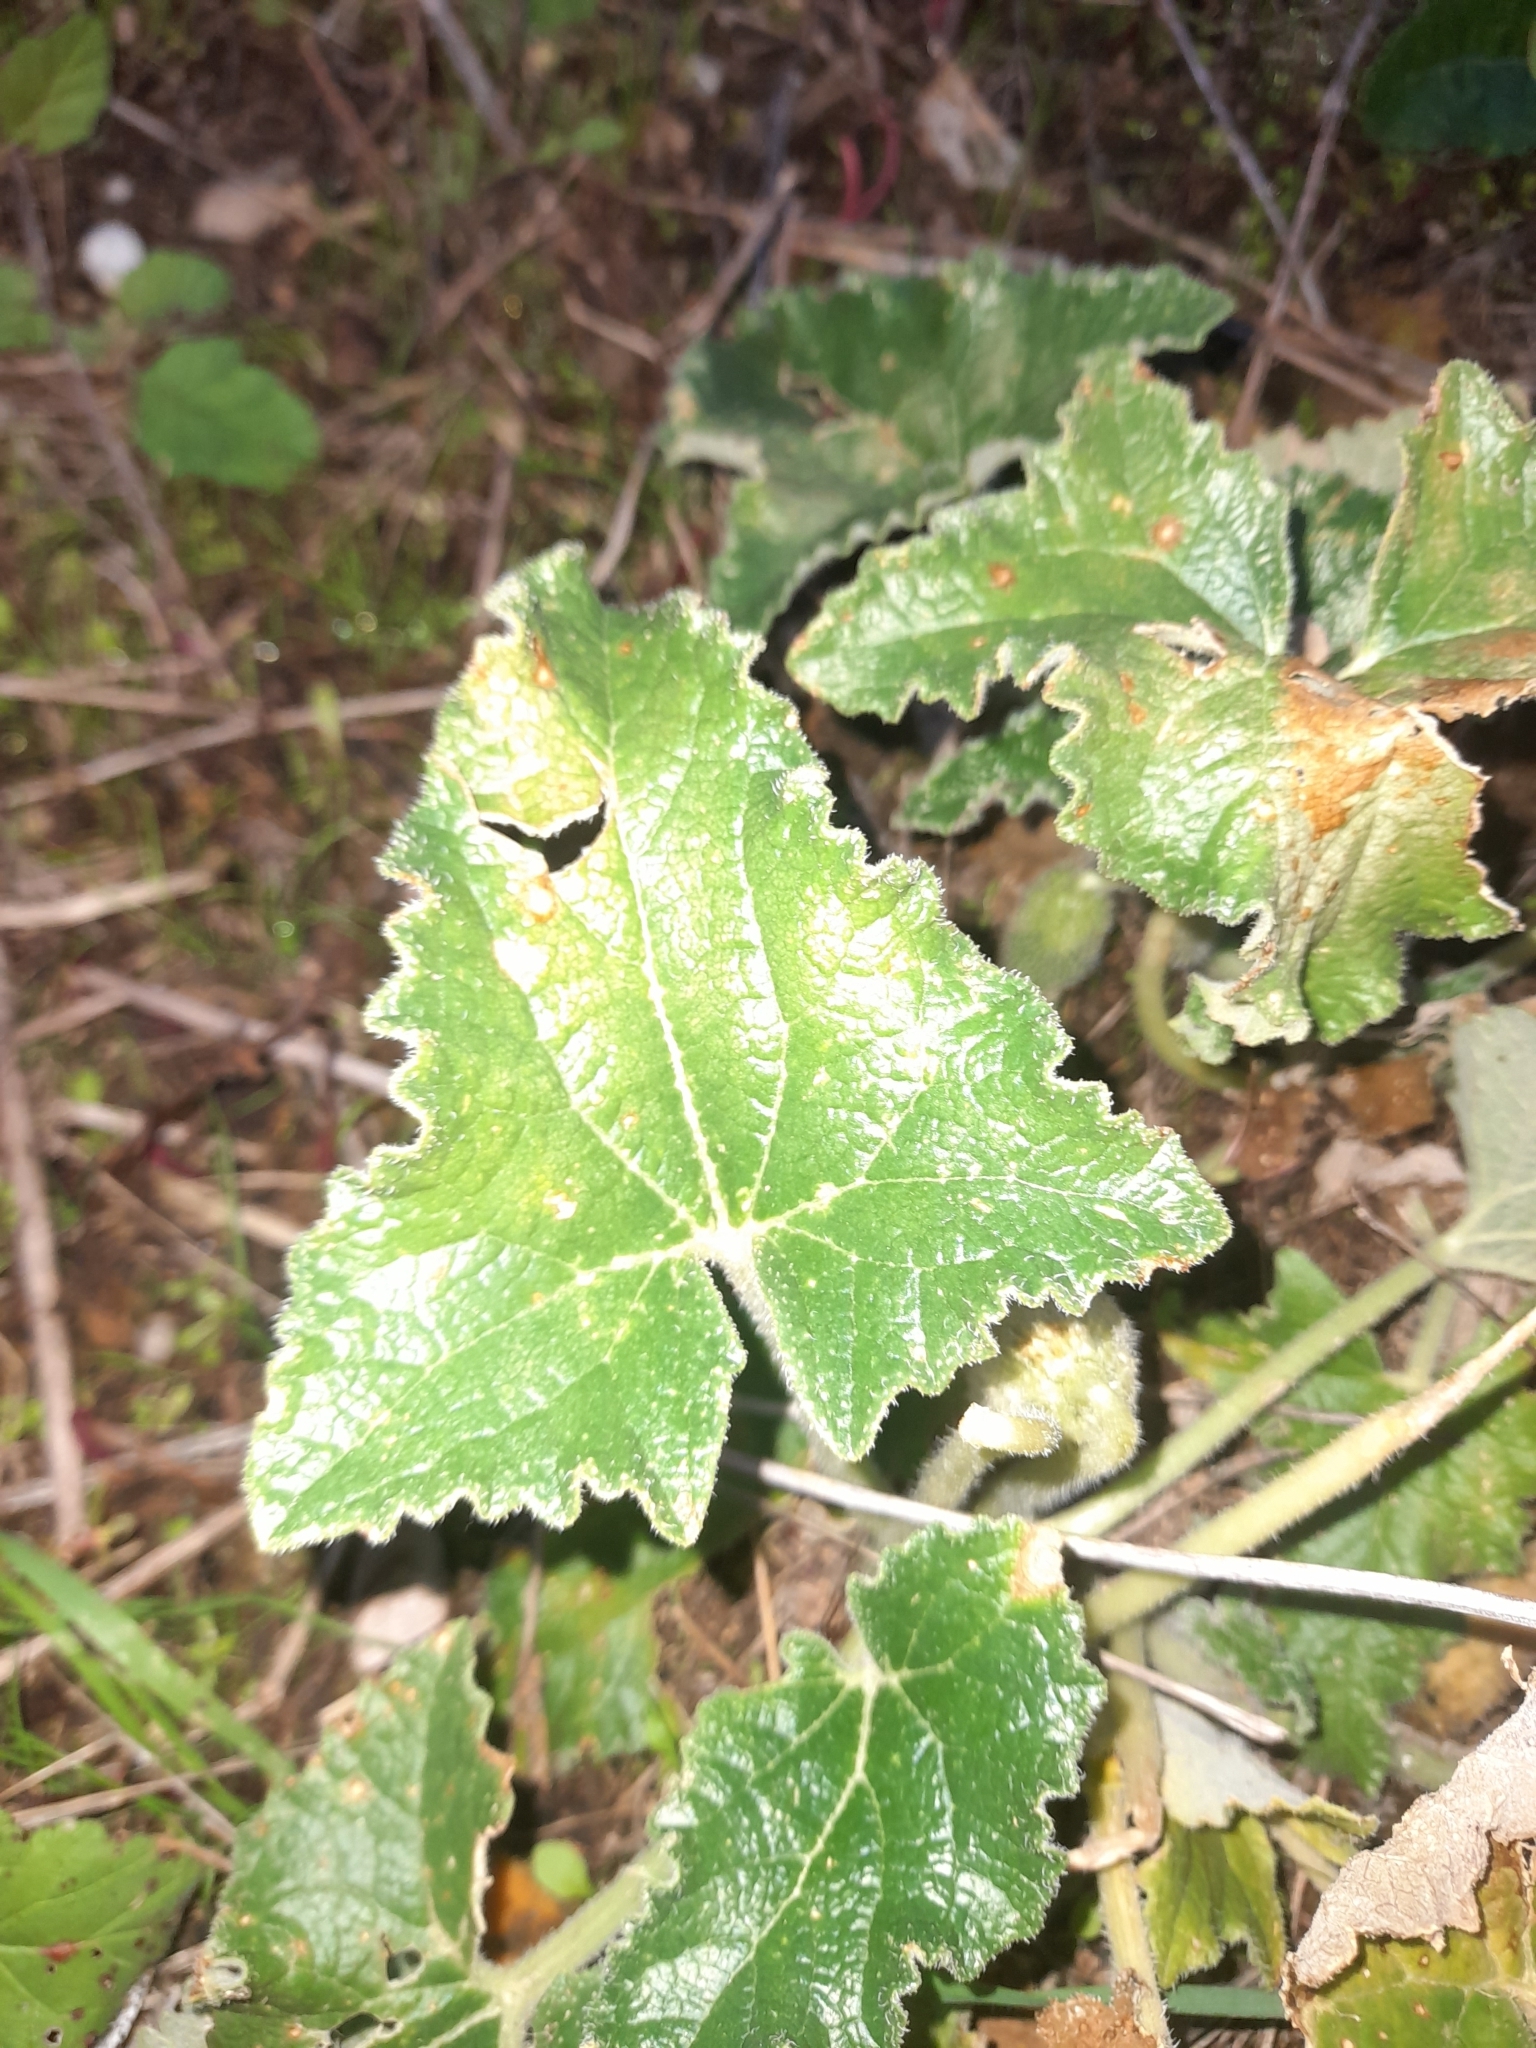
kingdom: Plantae
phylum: Tracheophyta
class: Magnoliopsida
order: Cucurbitales
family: Cucurbitaceae
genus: Ecballium
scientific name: Ecballium elaterium
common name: Squirting cucumber
